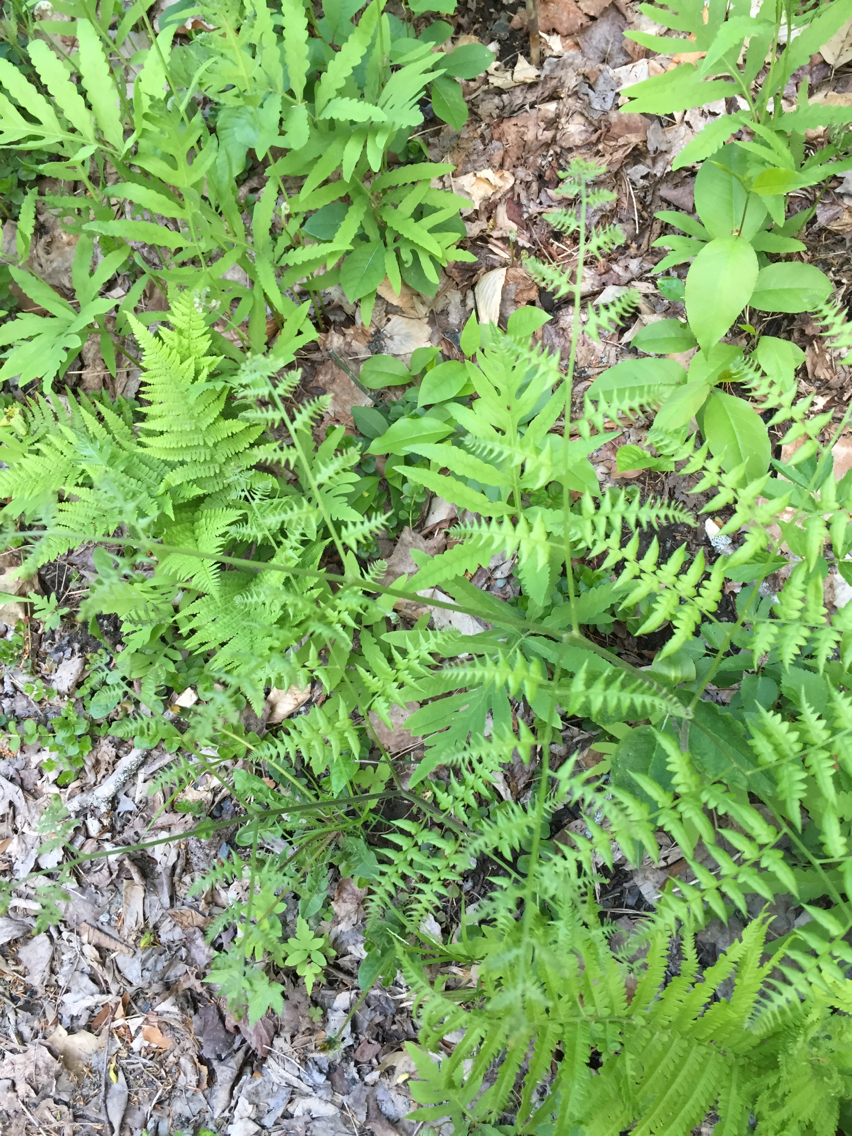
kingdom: Plantae
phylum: Tracheophyta
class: Polypodiopsida
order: Polypodiales
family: Dennstaedtiaceae
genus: Pteridium
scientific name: Pteridium aquilinum
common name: Bracken
